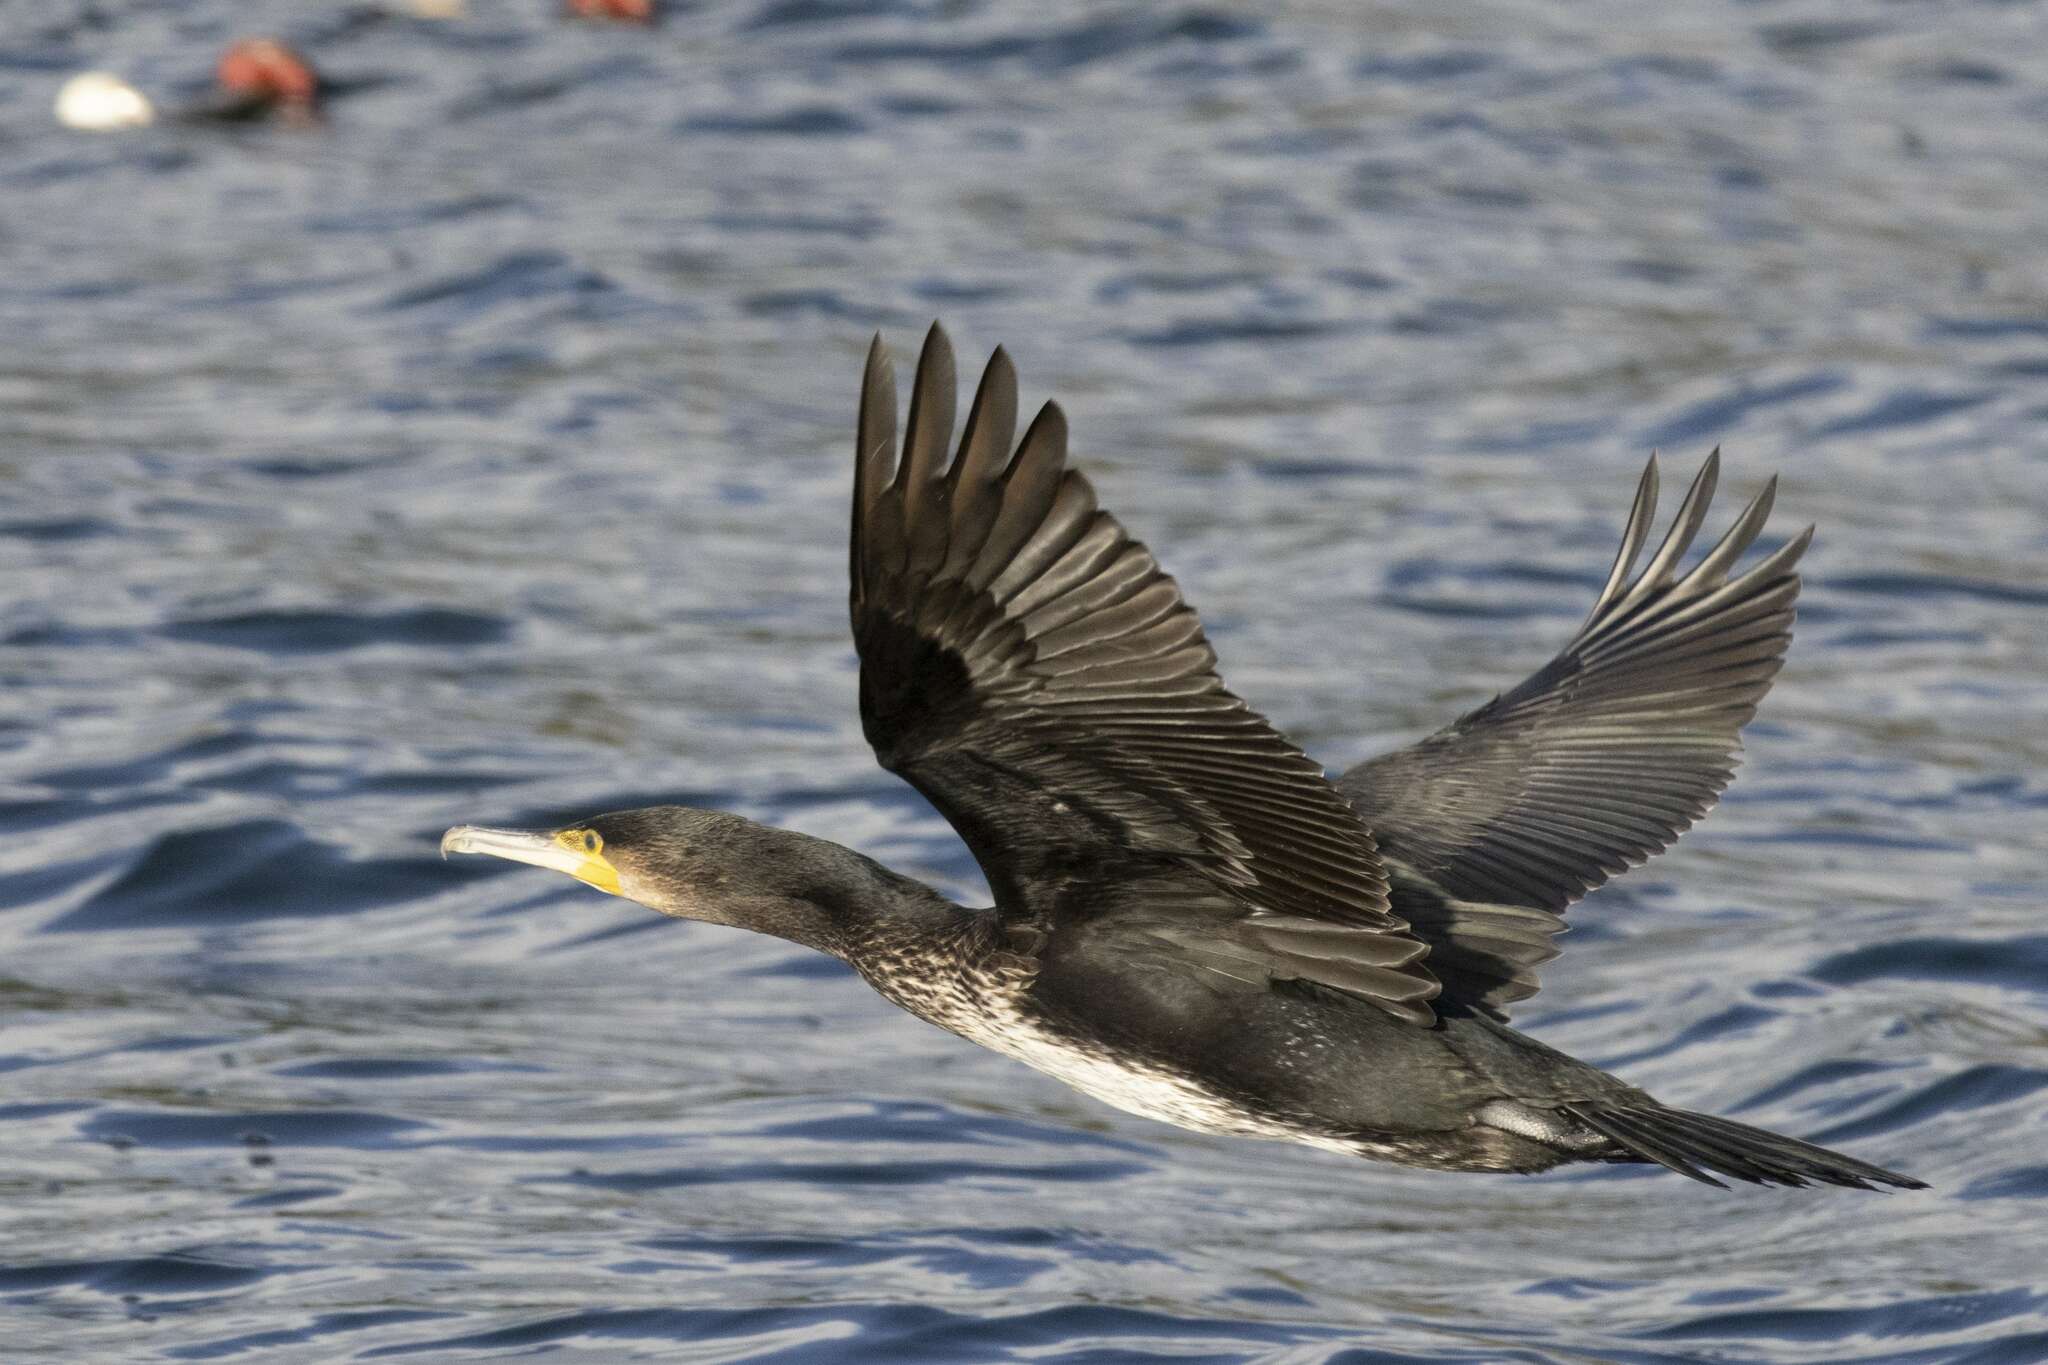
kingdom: Animalia
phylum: Chordata
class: Aves
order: Suliformes
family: Phalacrocoracidae
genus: Phalacrocorax
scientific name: Phalacrocorax carbo
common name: Great cormorant
